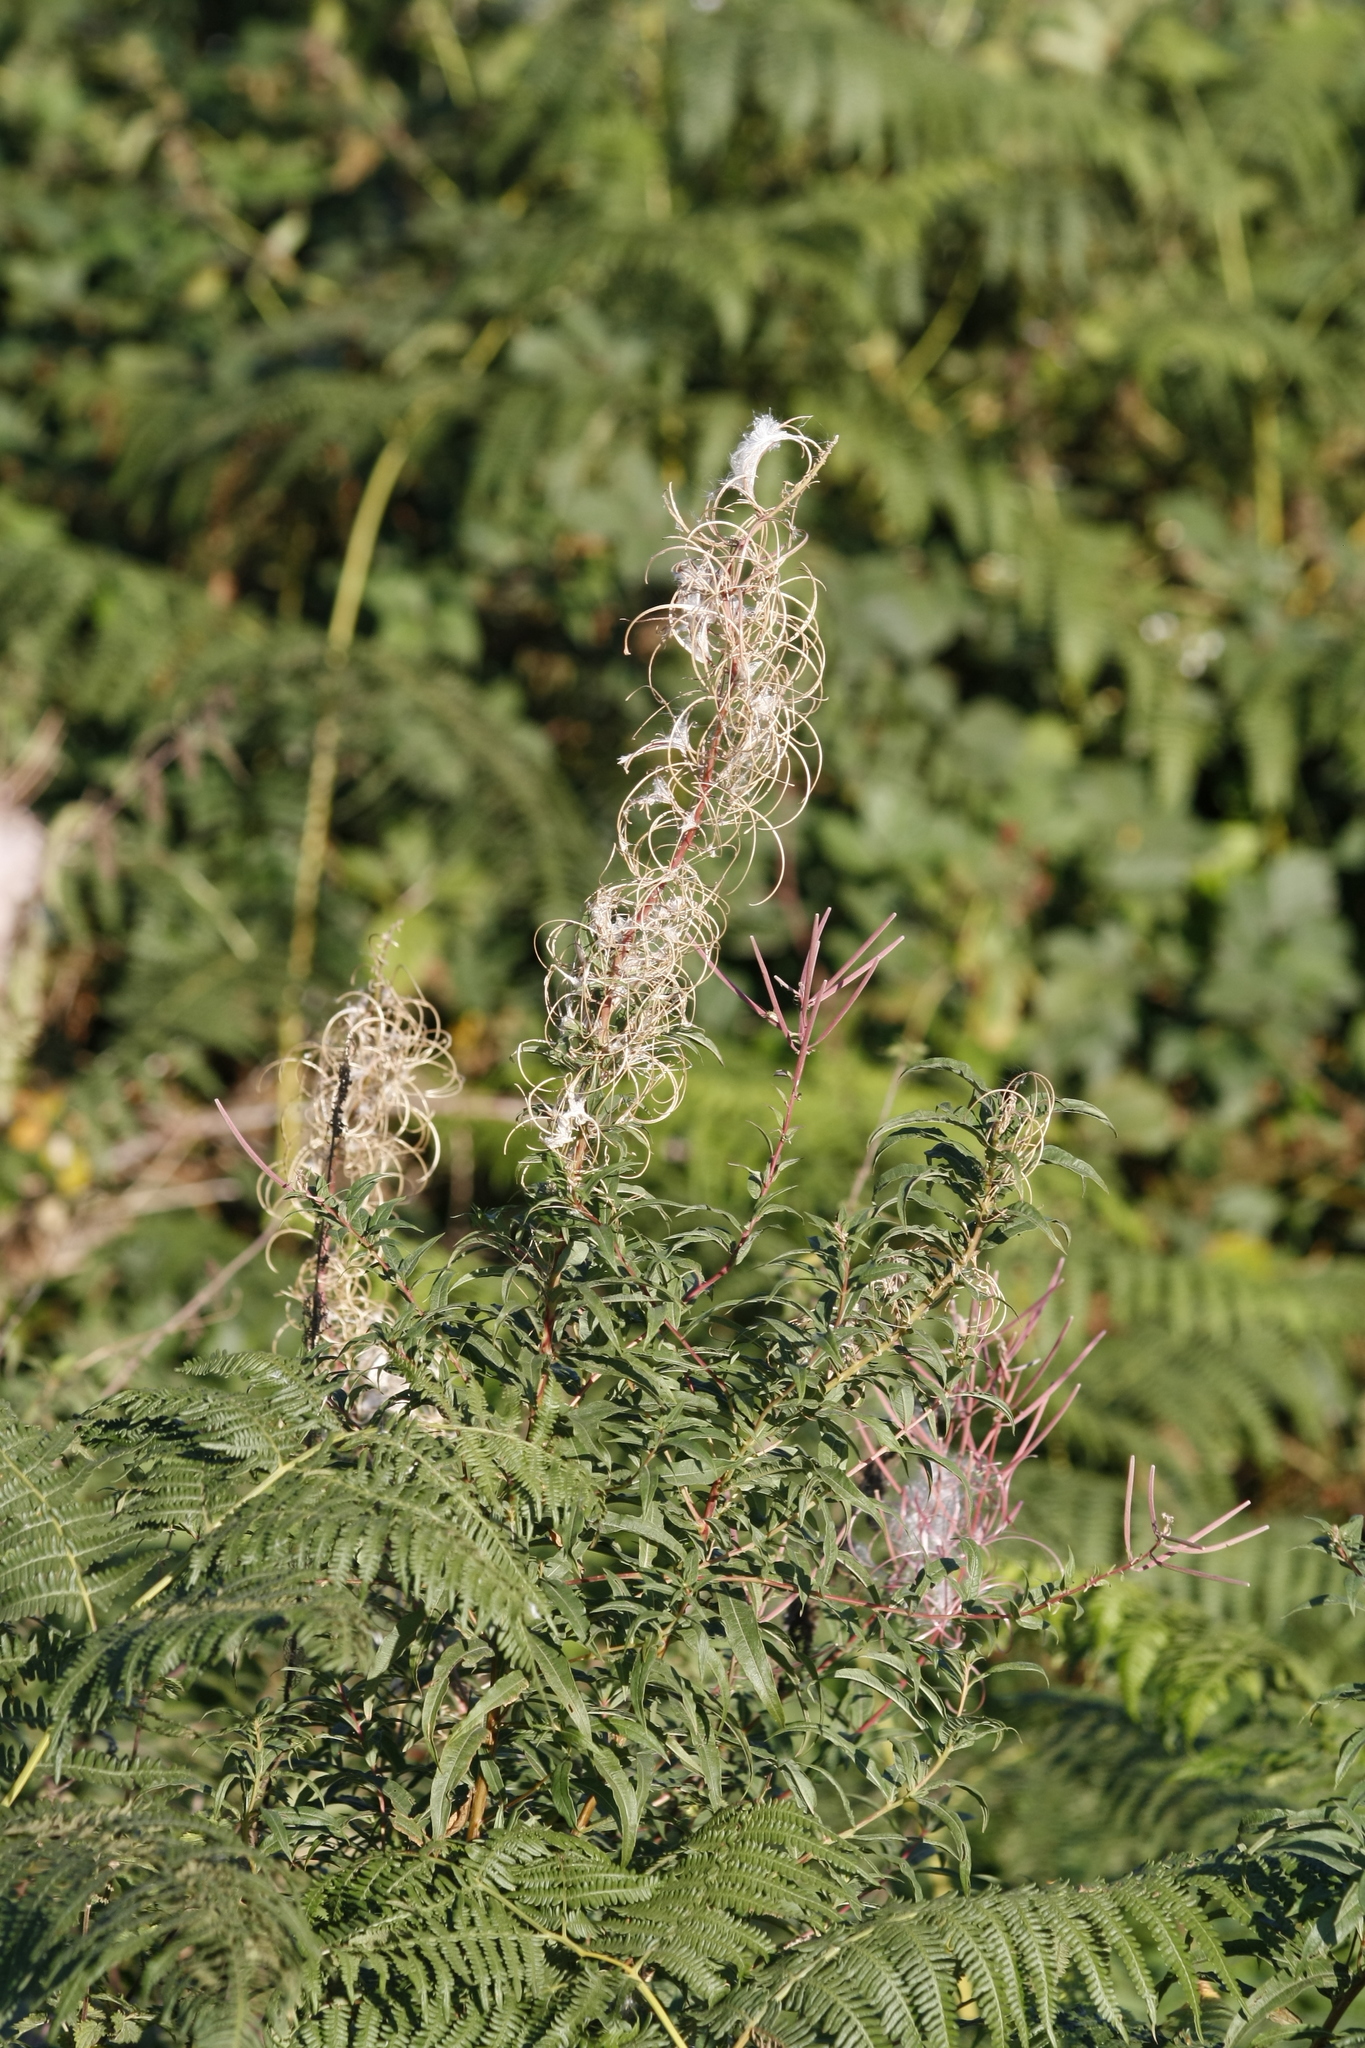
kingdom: Plantae
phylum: Tracheophyta
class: Magnoliopsida
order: Myrtales
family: Onagraceae
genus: Chamaenerion
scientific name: Chamaenerion angustifolium
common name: Fireweed
